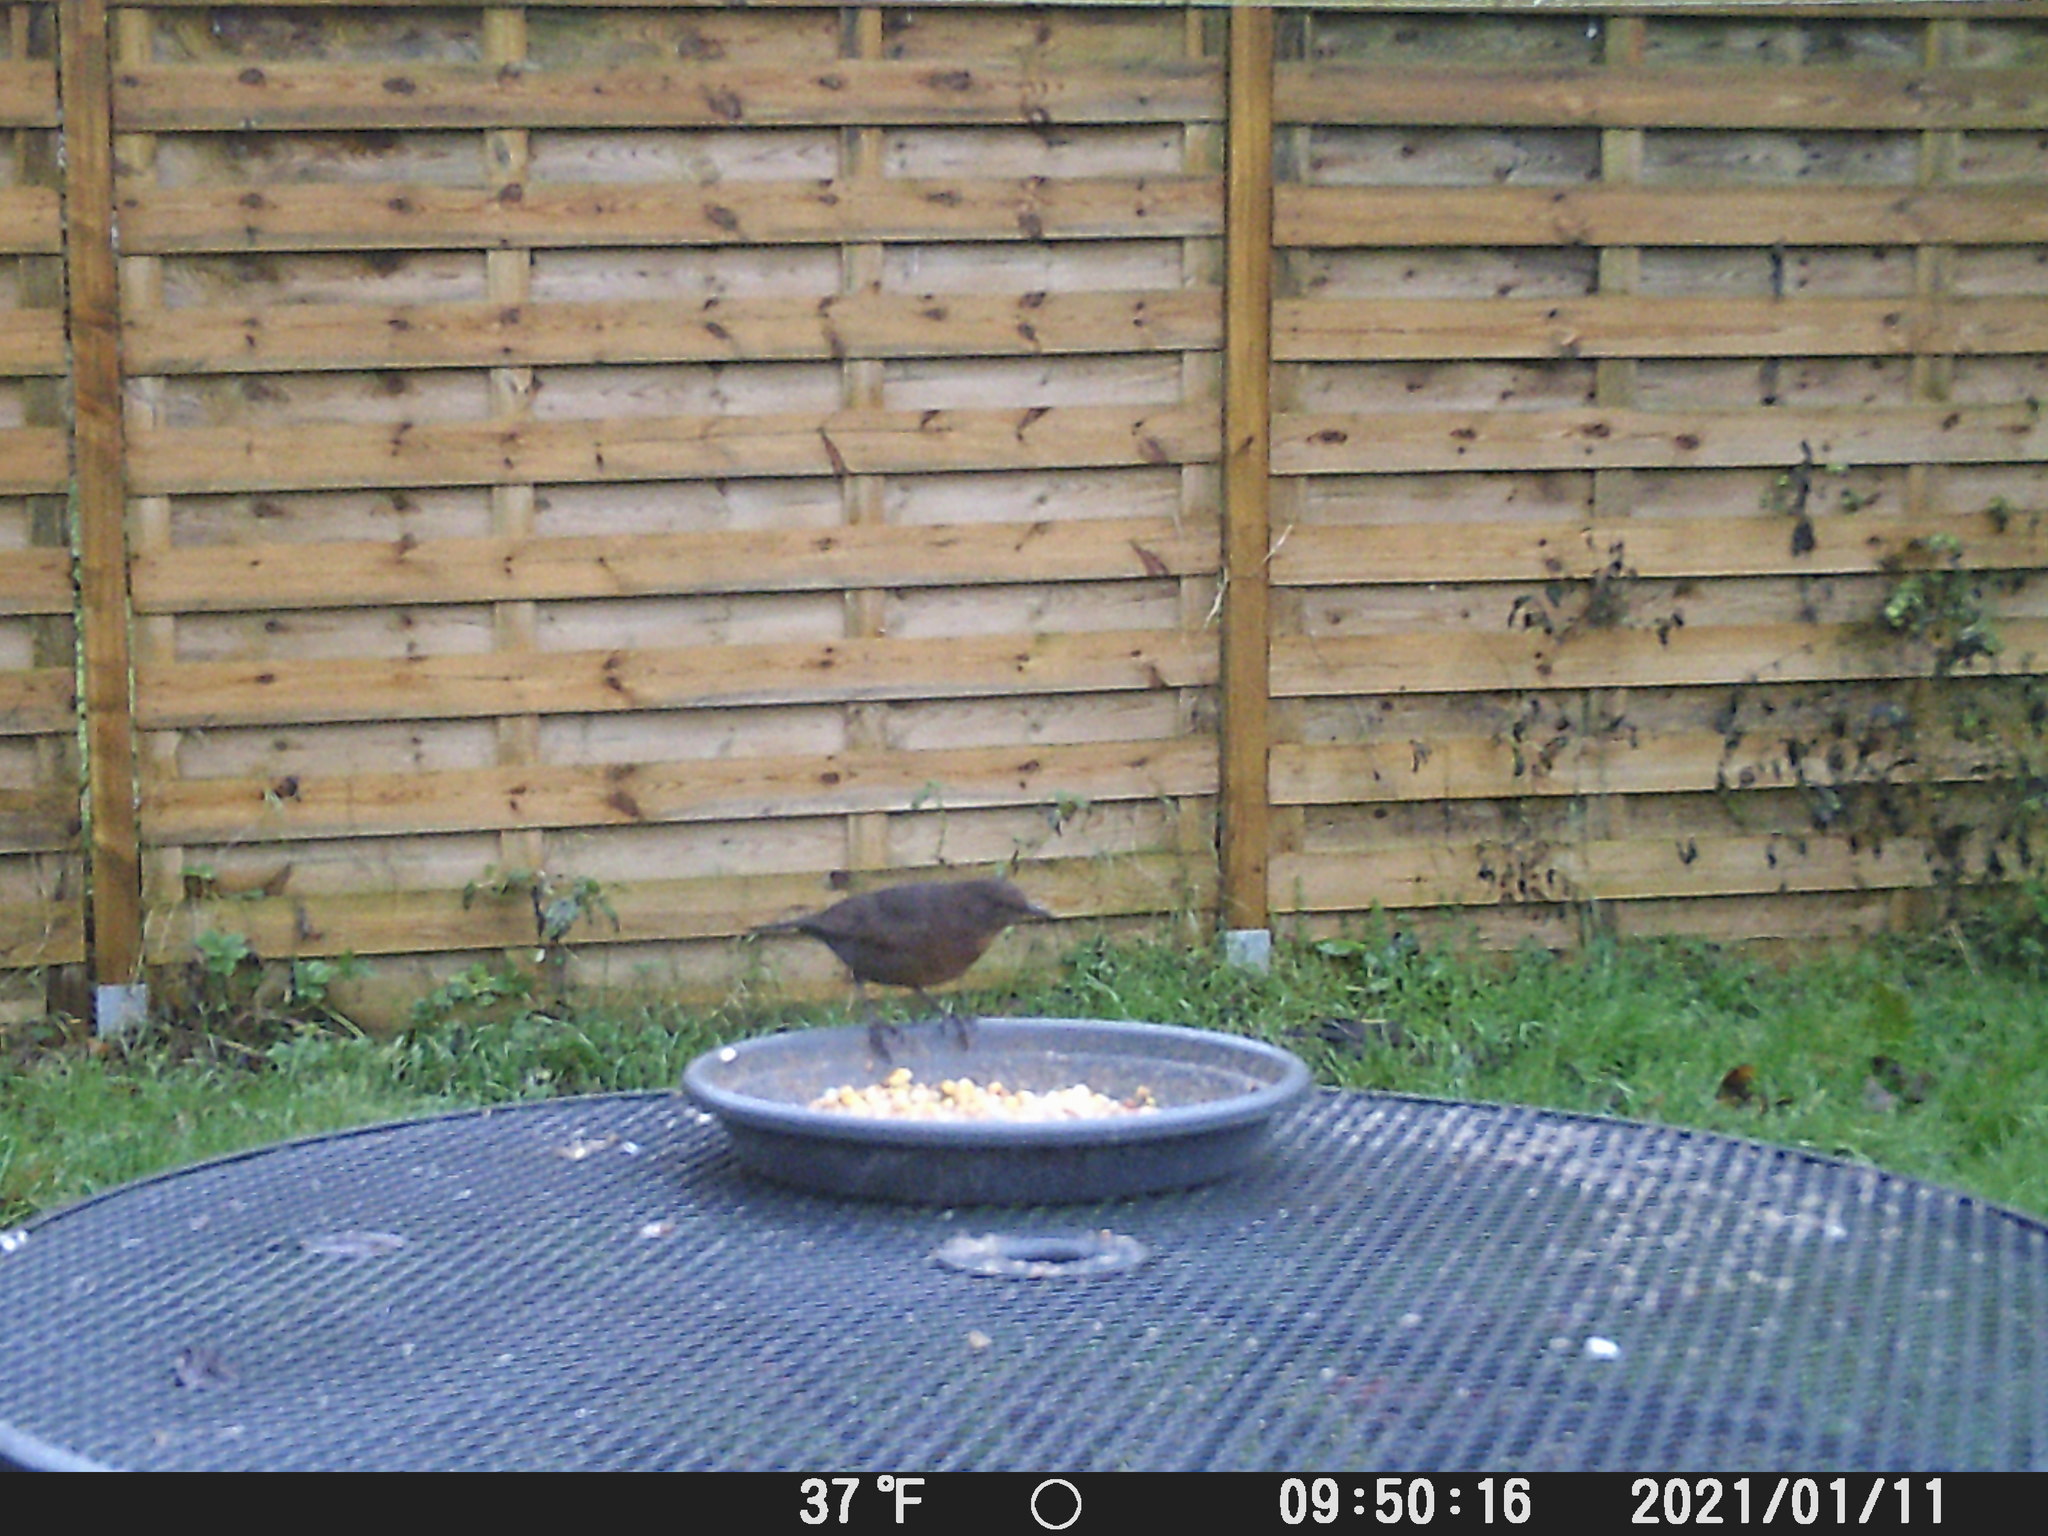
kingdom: Animalia
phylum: Chordata
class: Aves
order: Passeriformes
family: Turdidae
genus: Turdus
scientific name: Turdus merula
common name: Common blackbird
